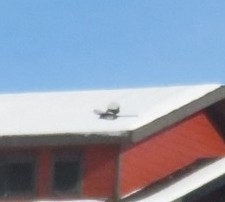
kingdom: Animalia
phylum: Chordata
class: Aves
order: Passeriformes
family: Corvidae
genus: Pica
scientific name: Pica hudsonia
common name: Black-billed magpie
